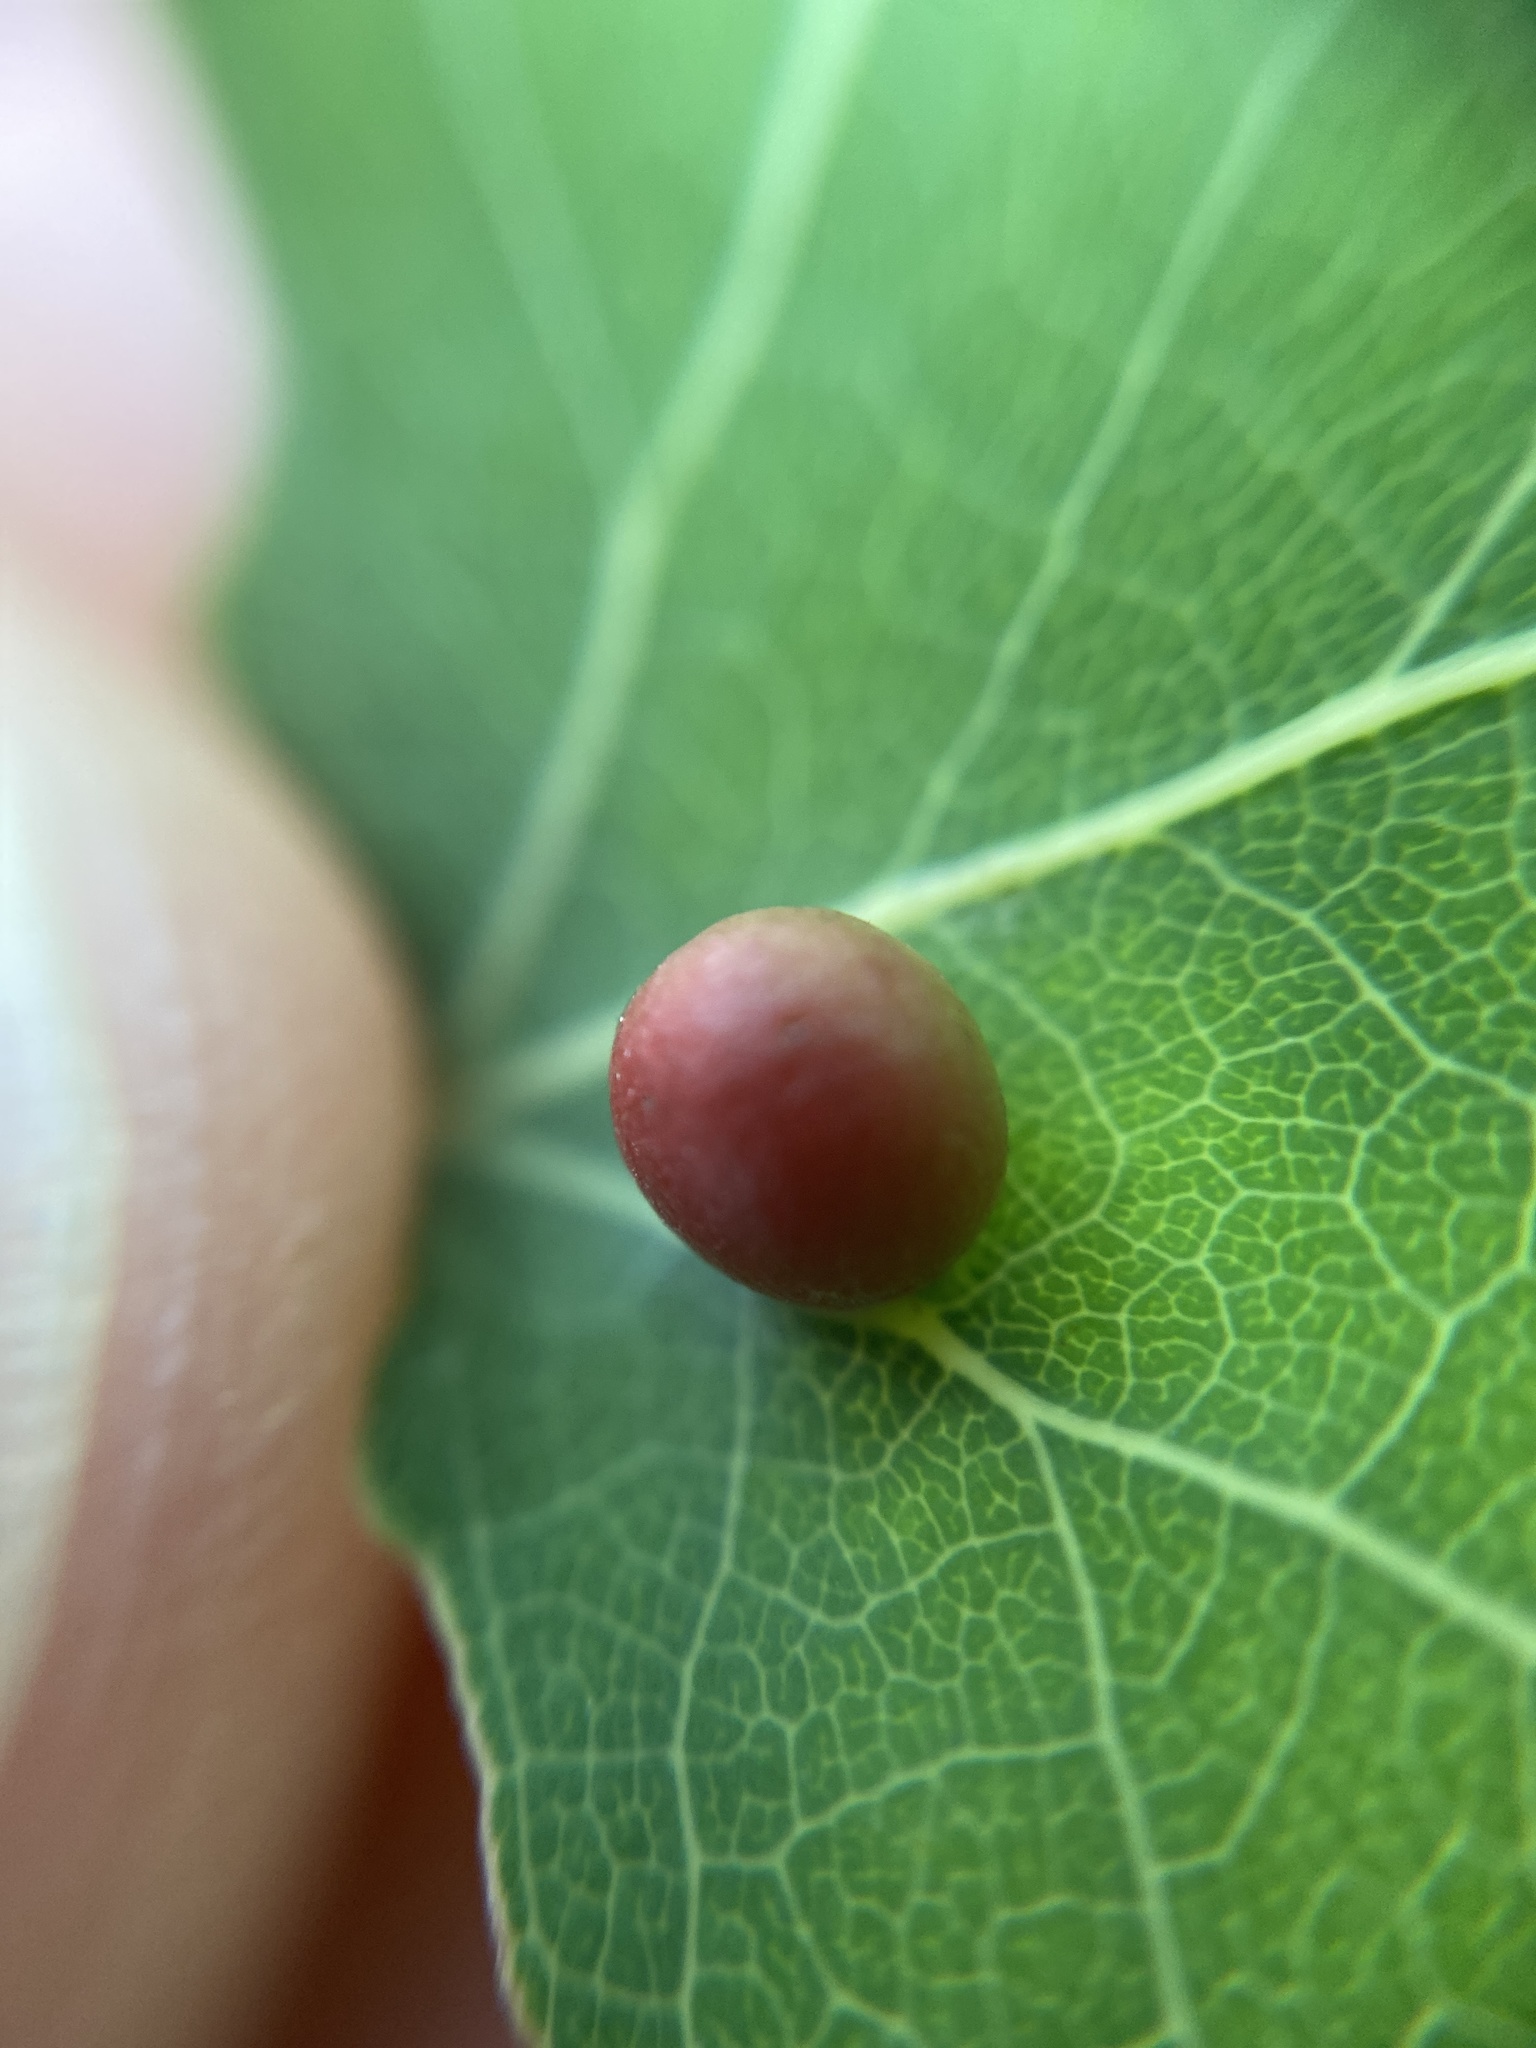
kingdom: Animalia
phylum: Arthropoda
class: Insecta
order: Diptera
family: Cecidomyiidae
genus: Harmandiola
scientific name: Harmandiola tremulae
